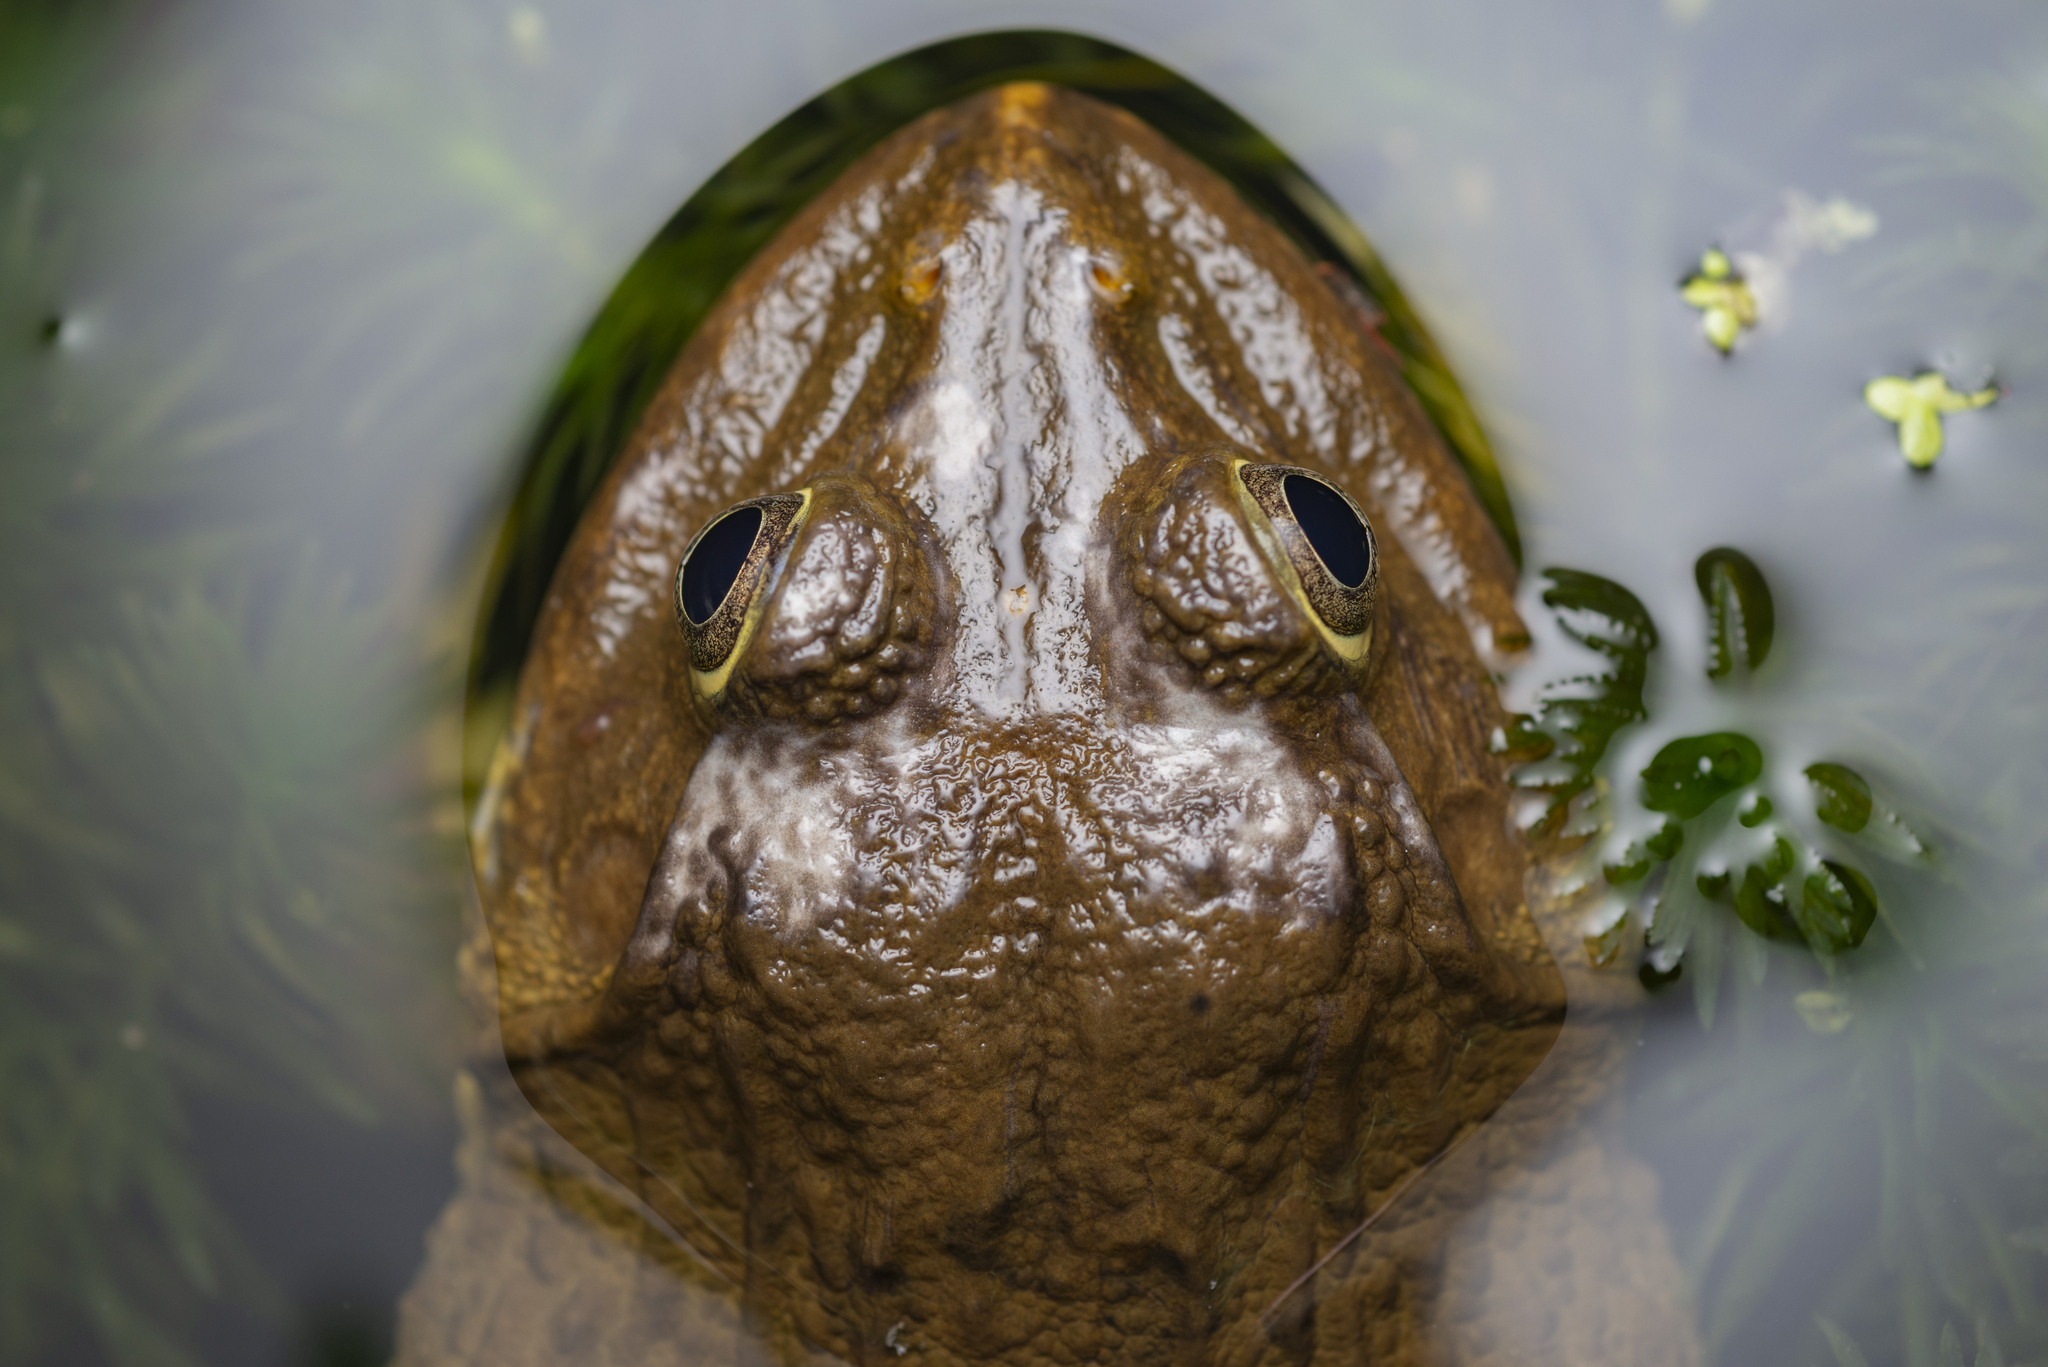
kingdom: Animalia
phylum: Chordata
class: Amphibia
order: Anura
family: Dicroglossidae
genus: Hoplobatrachus
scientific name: Hoplobatrachus
